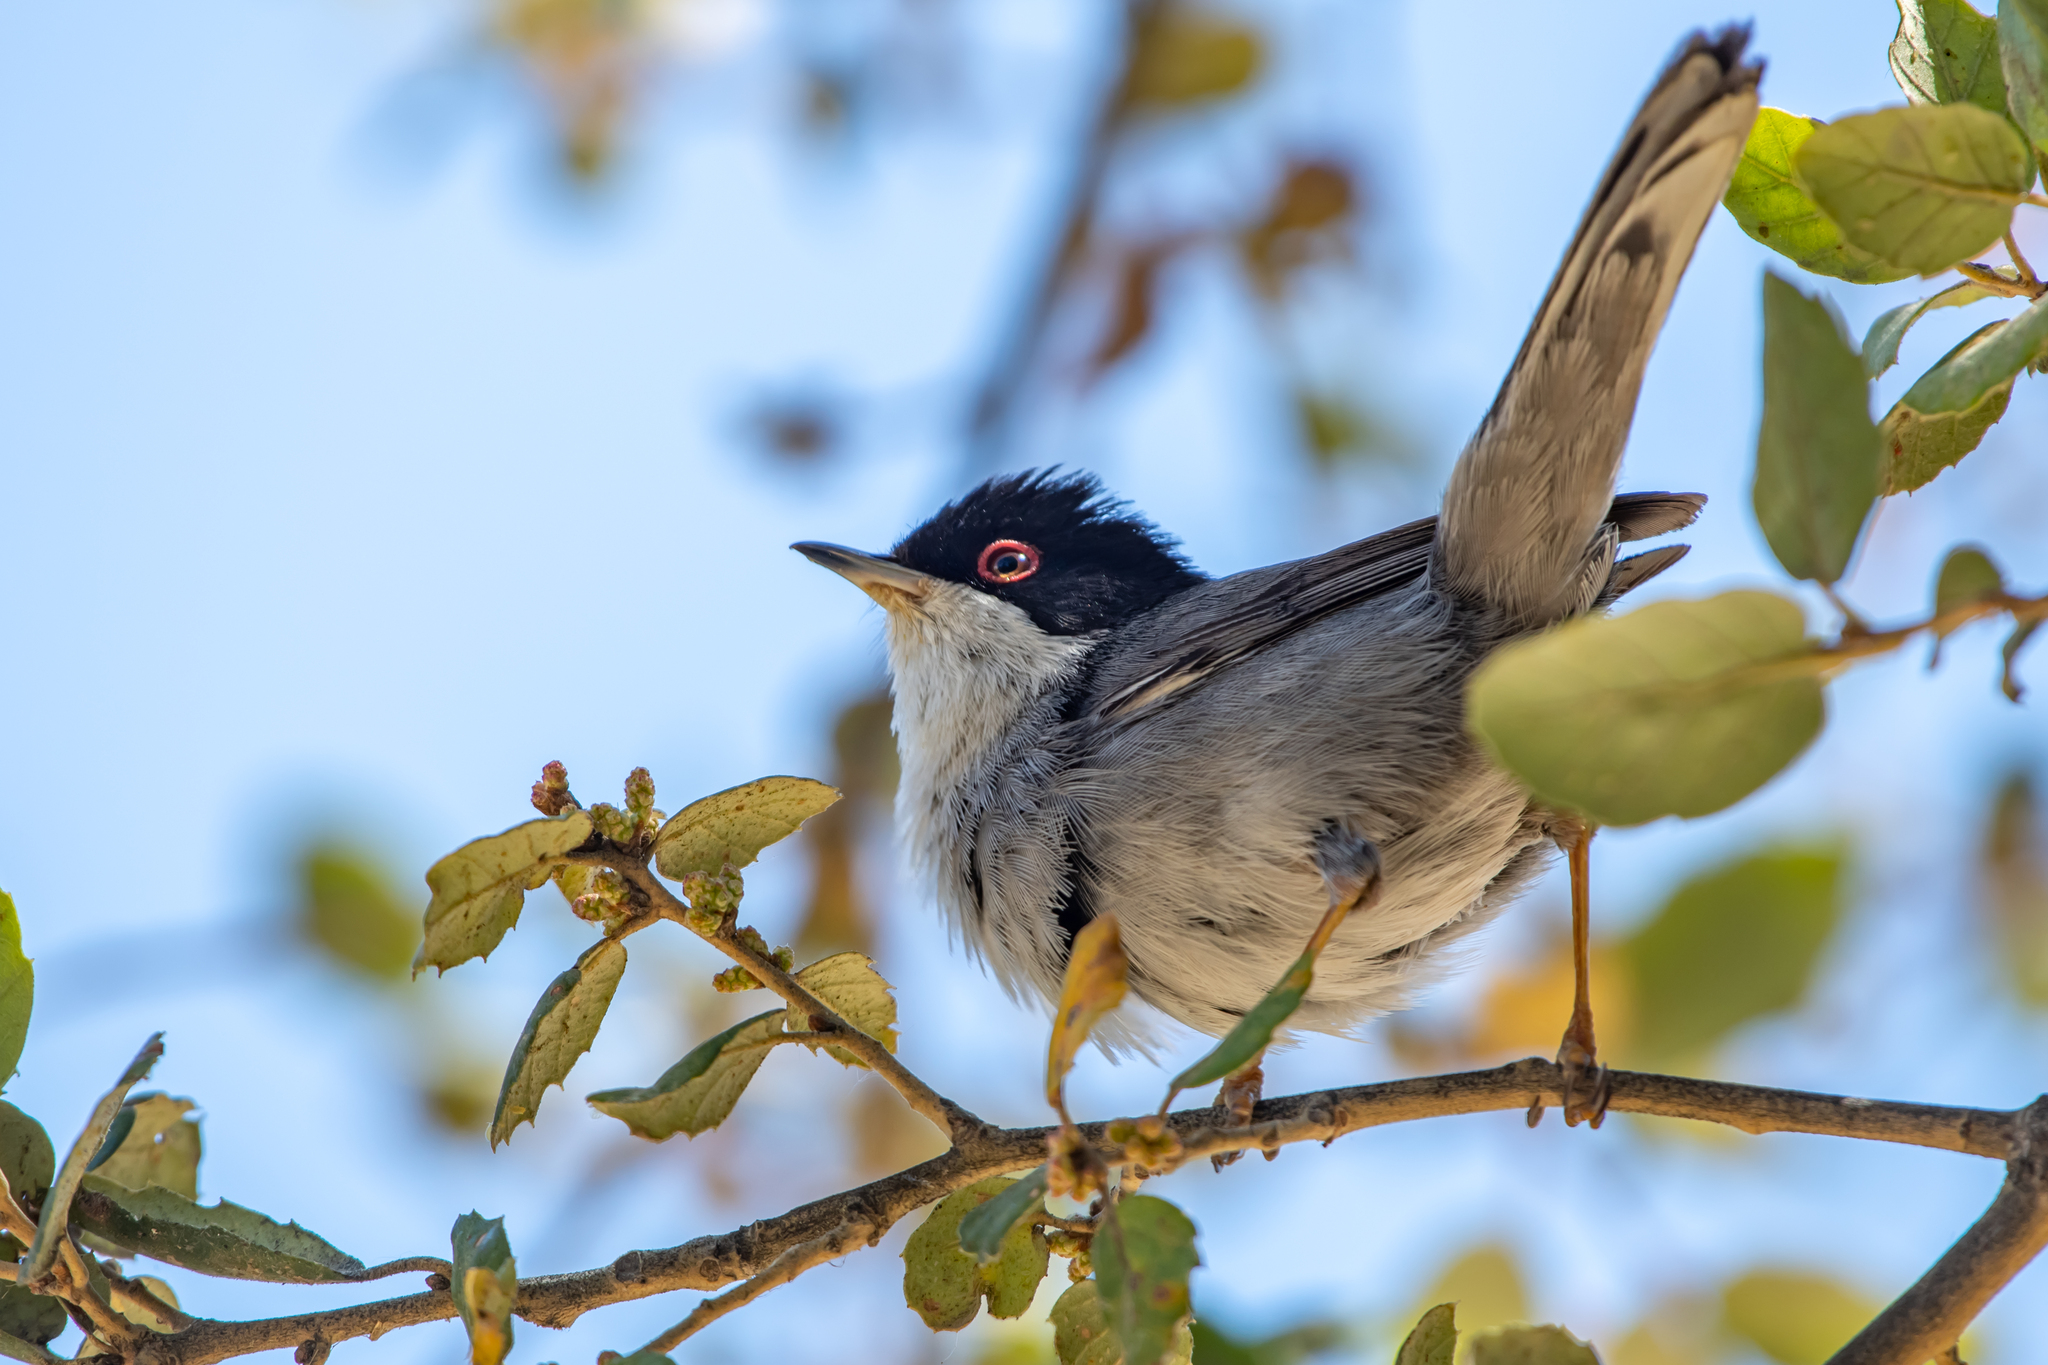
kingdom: Animalia
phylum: Chordata
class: Aves
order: Passeriformes
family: Sylviidae
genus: Curruca
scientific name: Curruca melanocephala
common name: Sardinian warbler
